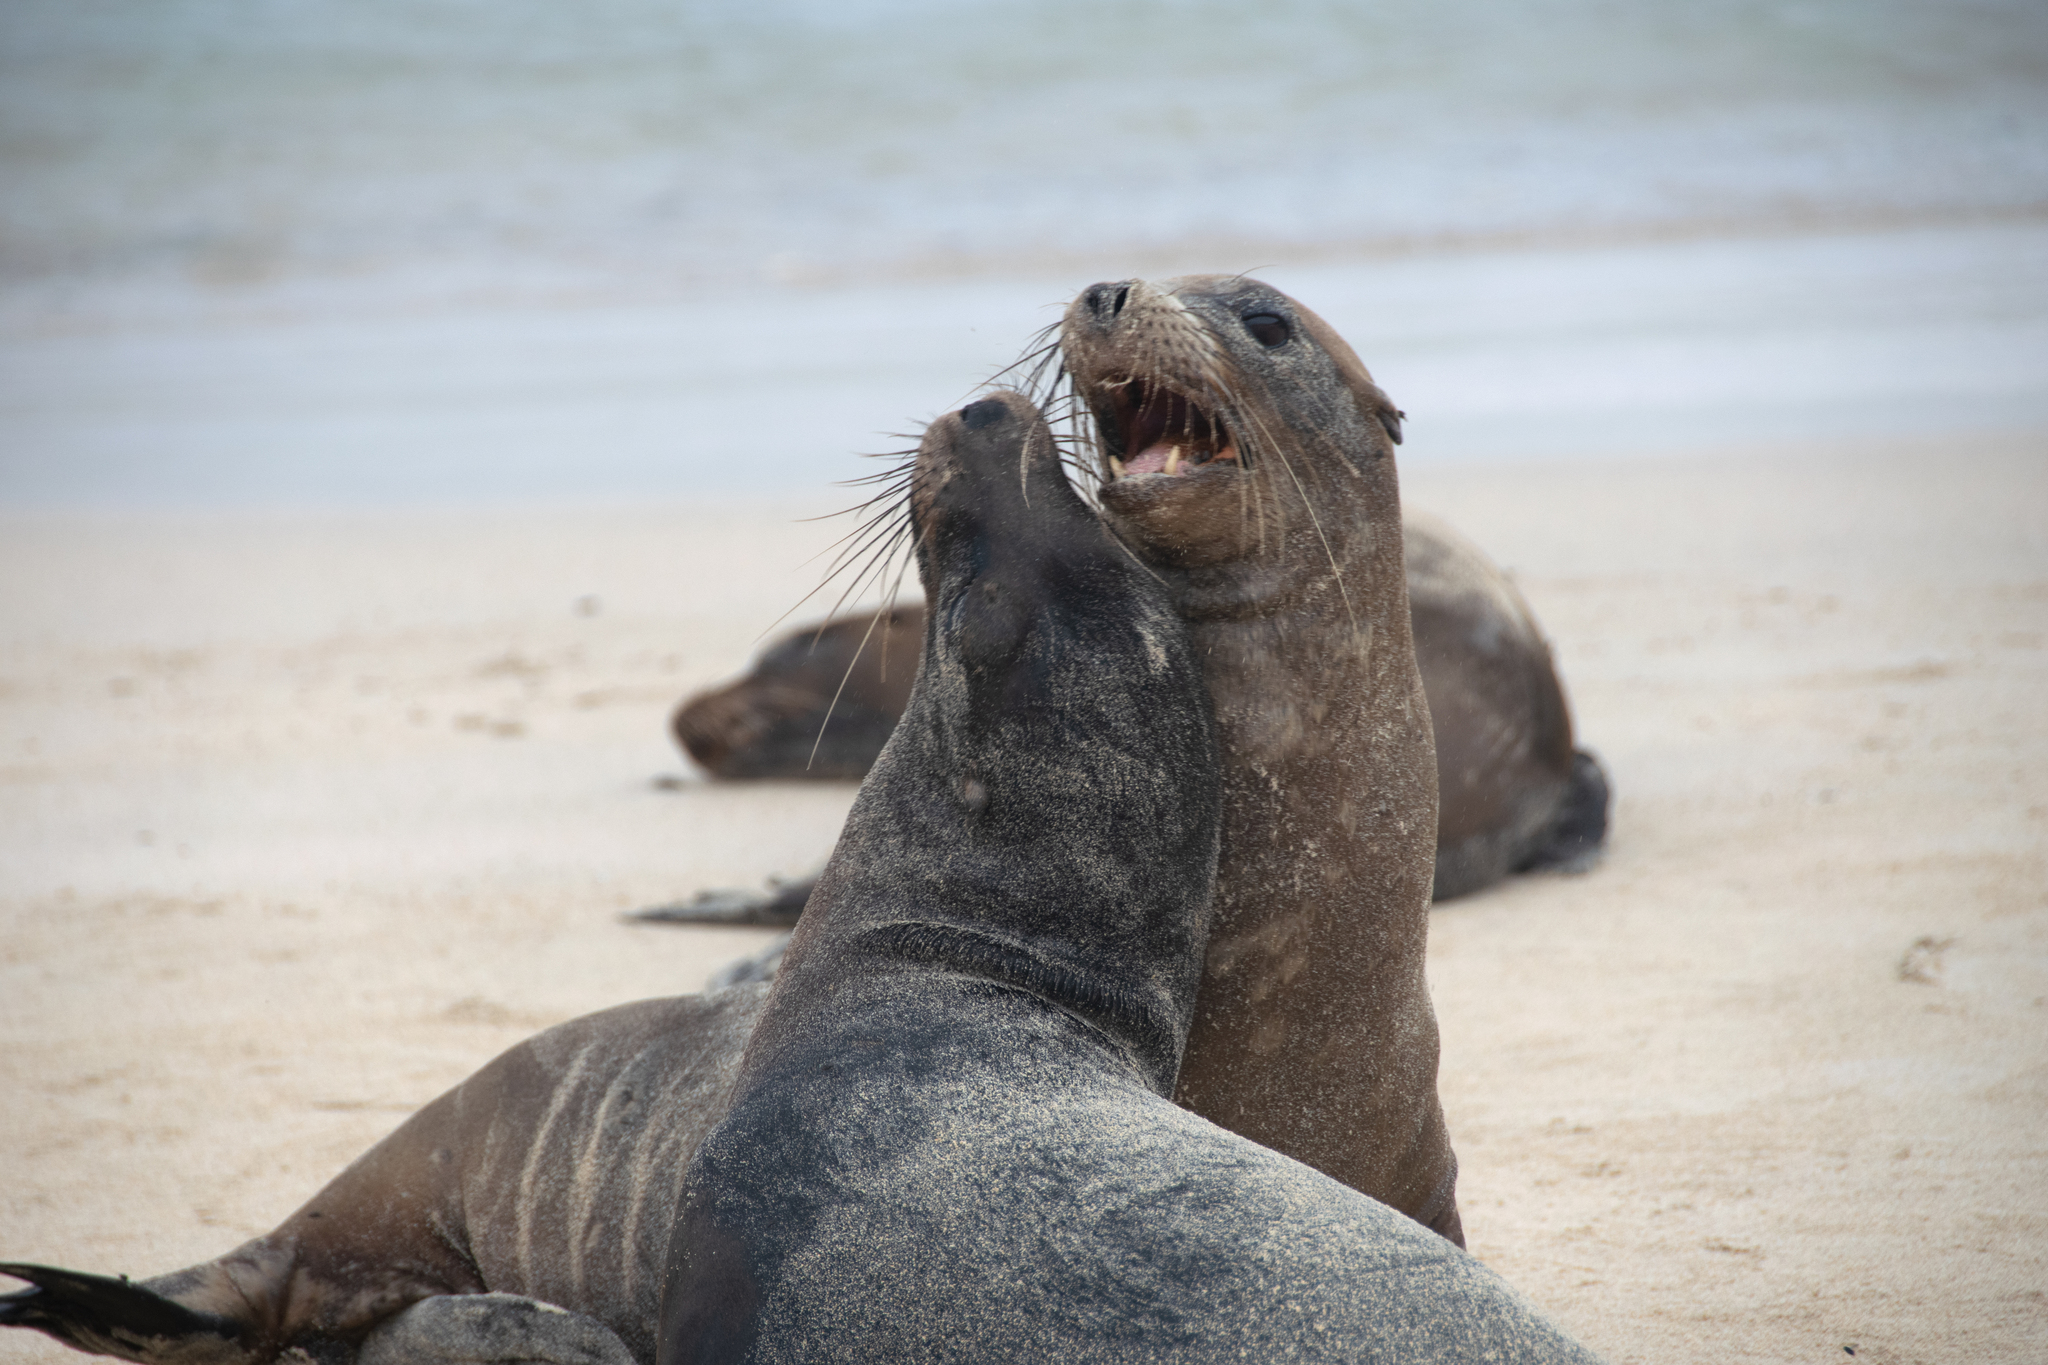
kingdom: Animalia
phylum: Chordata
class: Mammalia
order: Carnivora
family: Otariidae
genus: Zalophus
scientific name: Zalophus wollebaeki
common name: Galapagos sea lion
